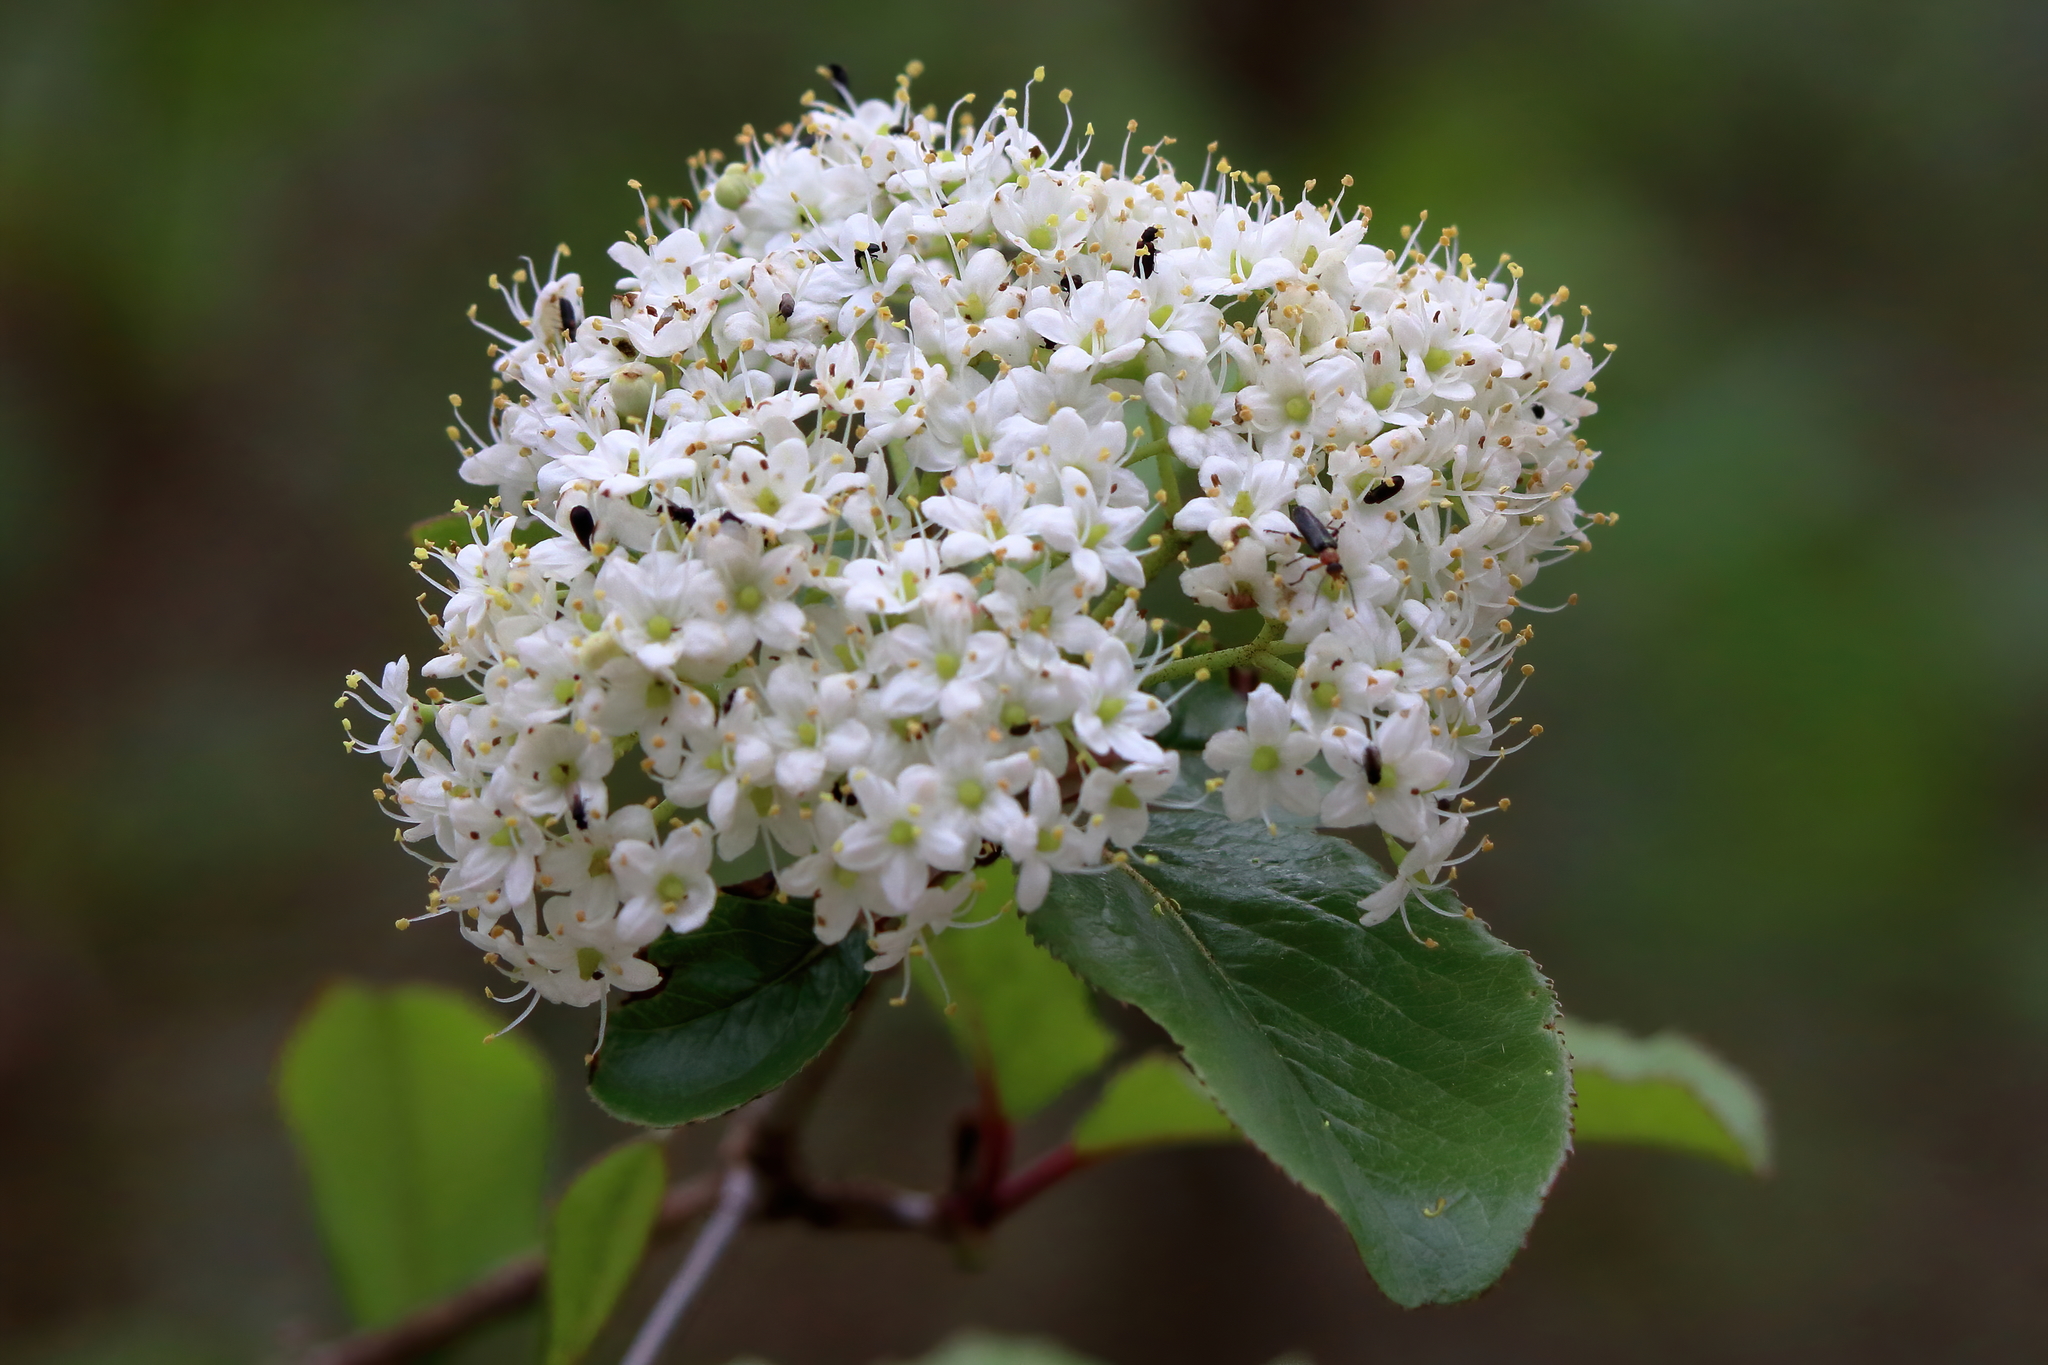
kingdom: Plantae
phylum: Tracheophyta
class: Magnoliopsida
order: Dipsacales
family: Viburnaceae
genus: Viburnum
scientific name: Viburnum rufidulum
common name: Blue haw
